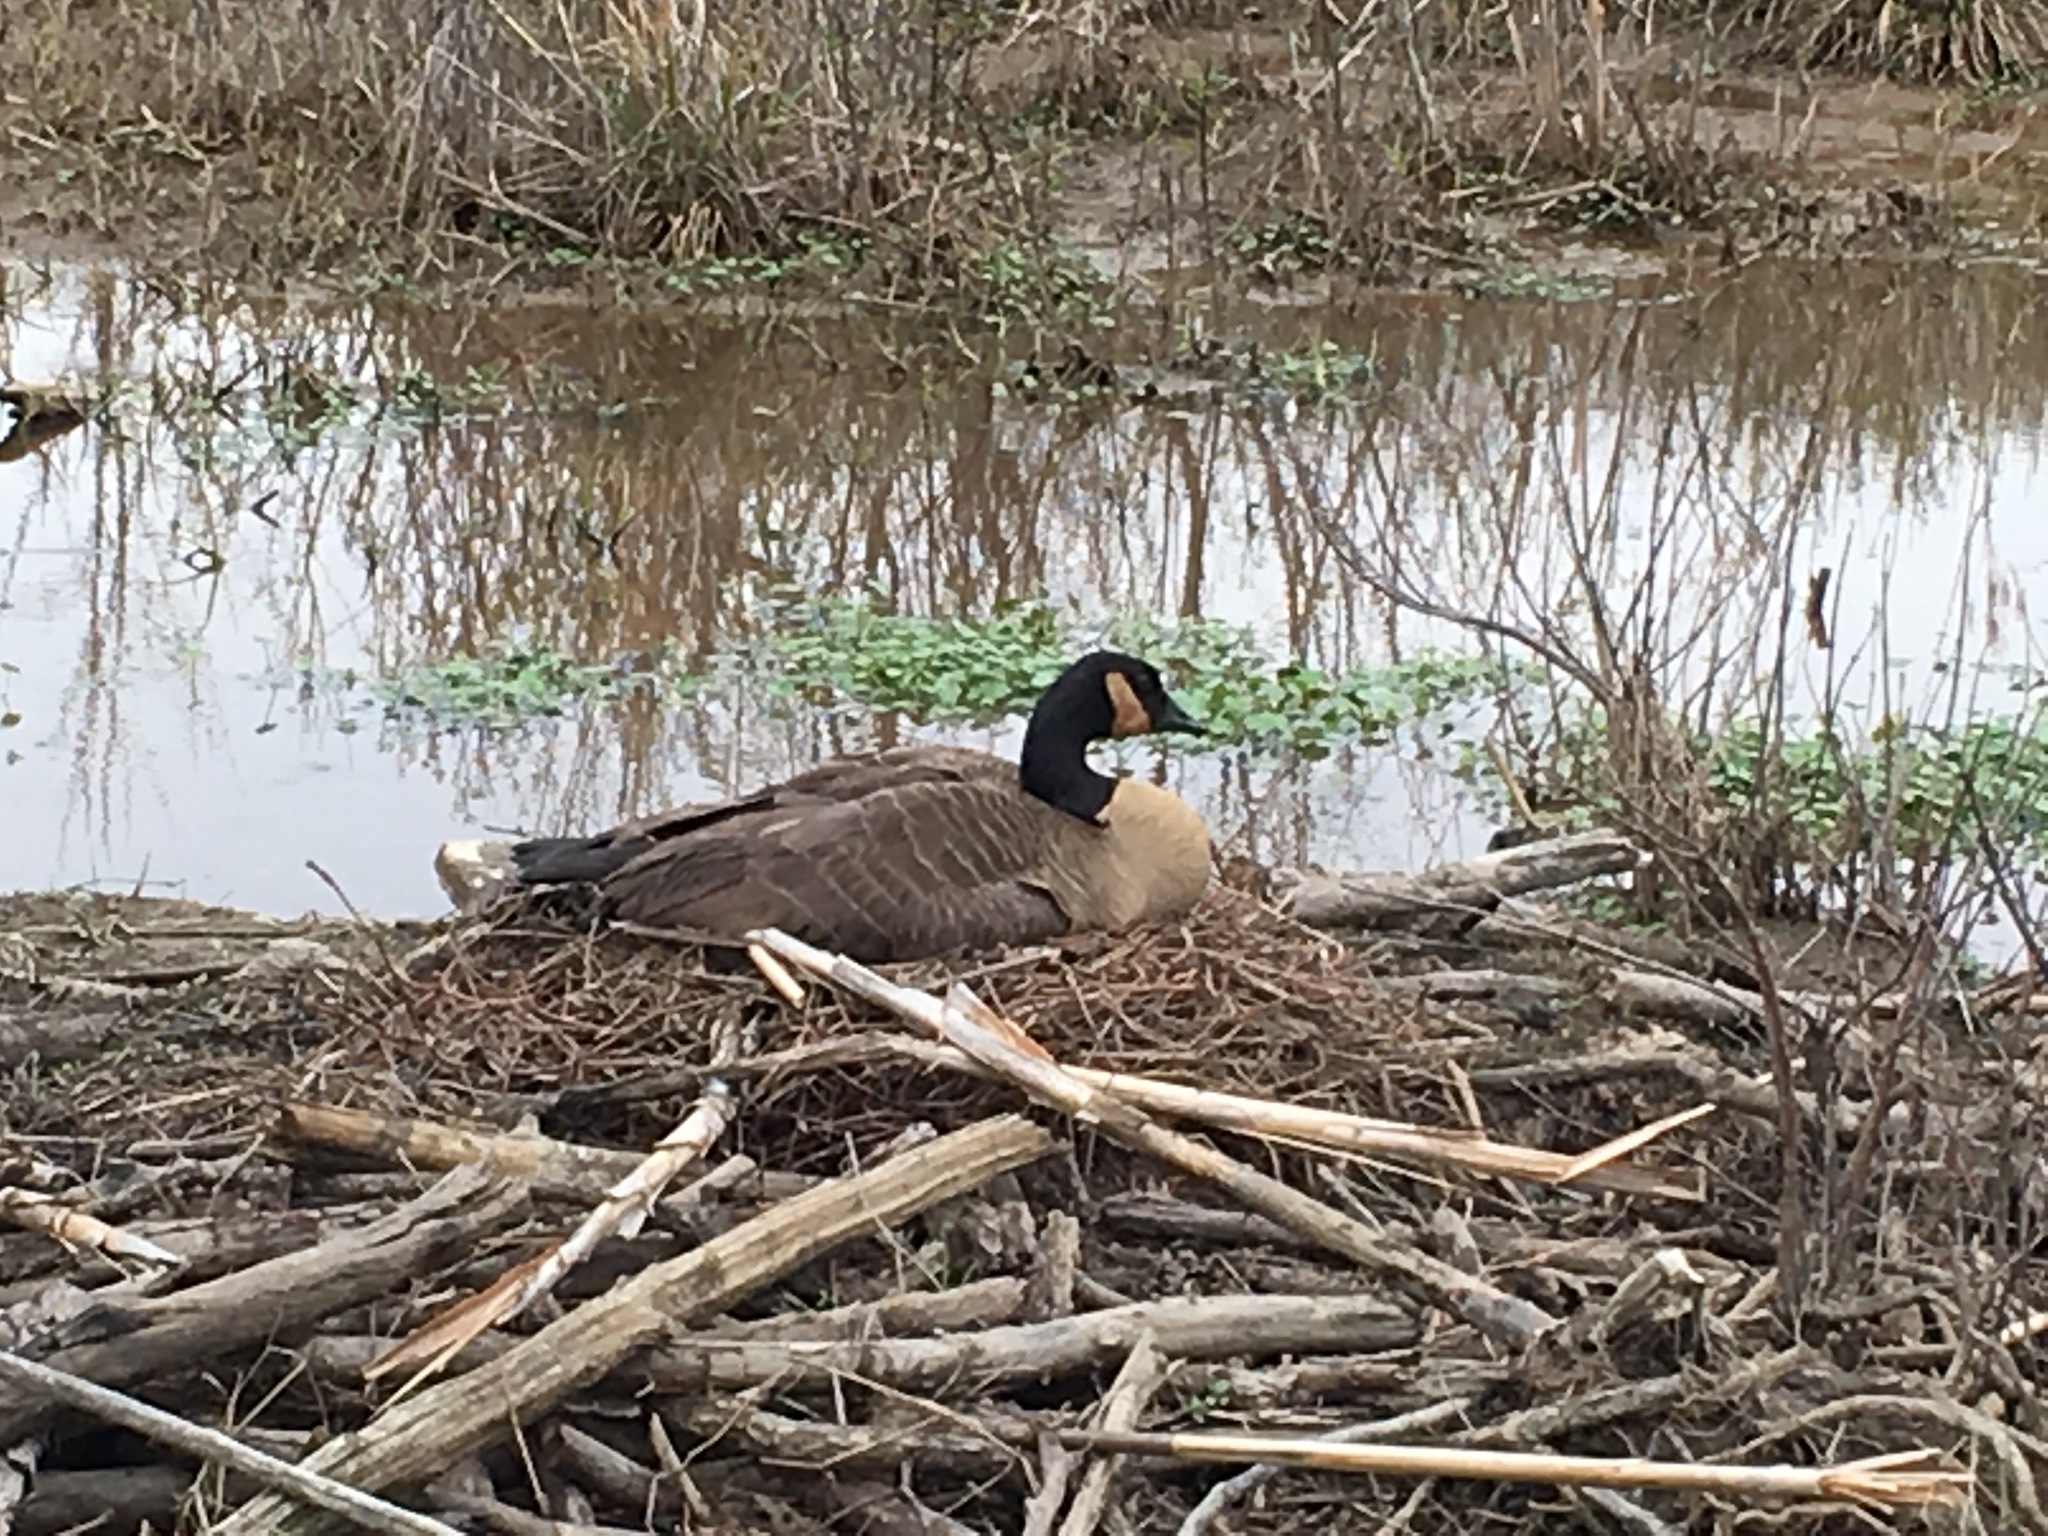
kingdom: Animalia
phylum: Chordata
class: Aves
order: Anseriformes
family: Anatidae
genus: Branta
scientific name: Branta canadensis
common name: Canada goose
